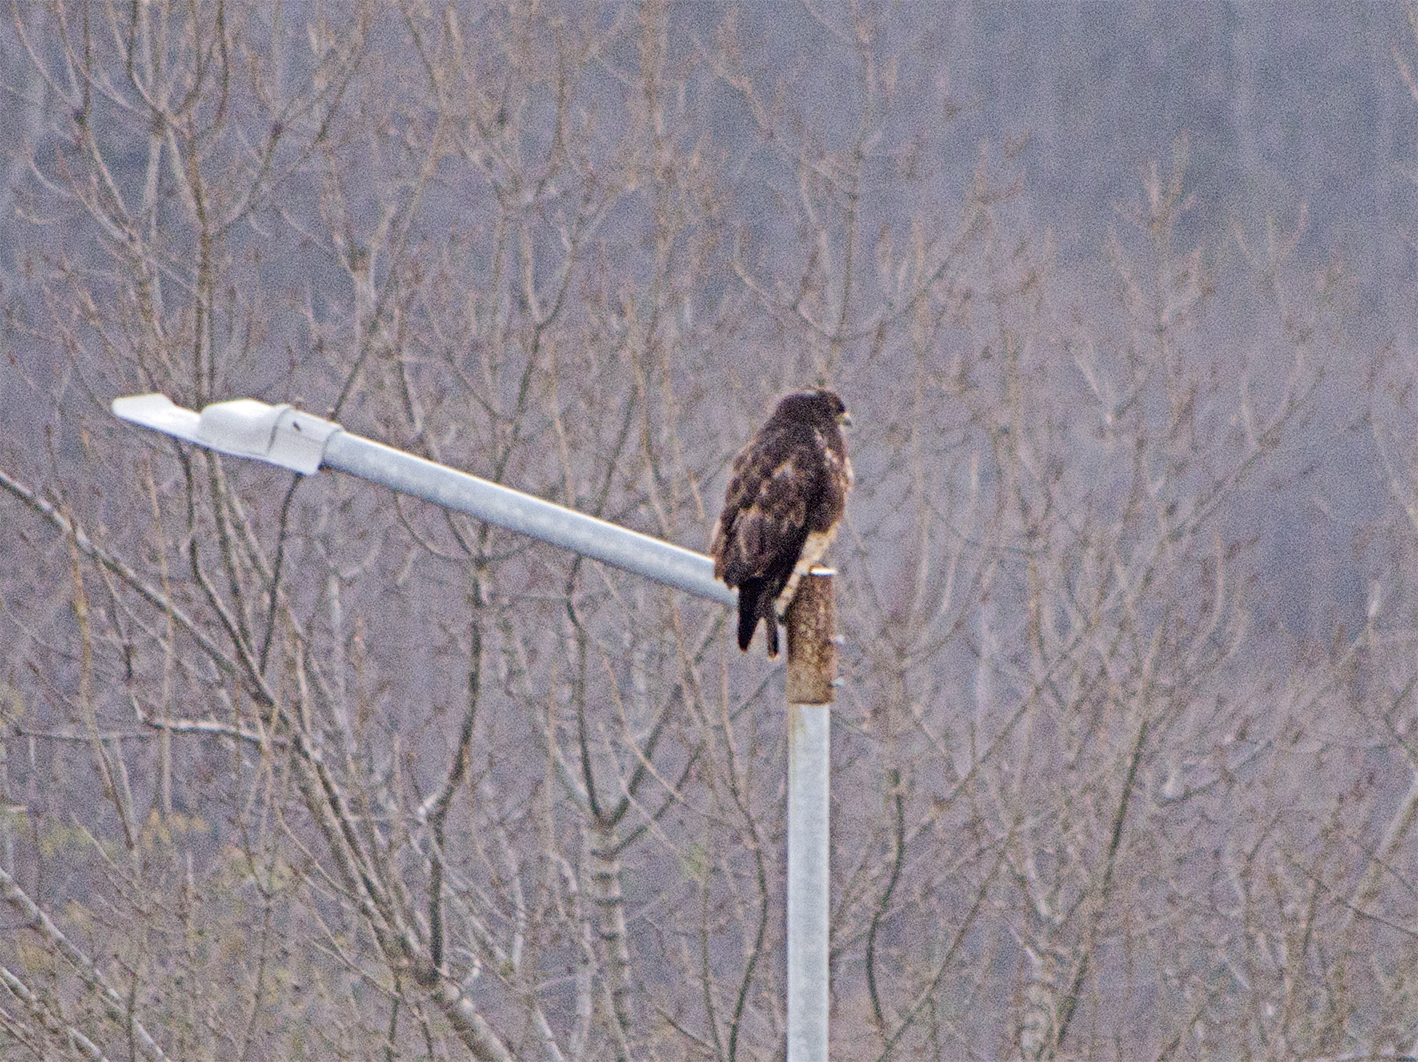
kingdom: Animalia
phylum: Chordata
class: Aves
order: Accipitriformes
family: Accipitridae
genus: Buteo
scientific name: Buteo buteo
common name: Common buzzard
